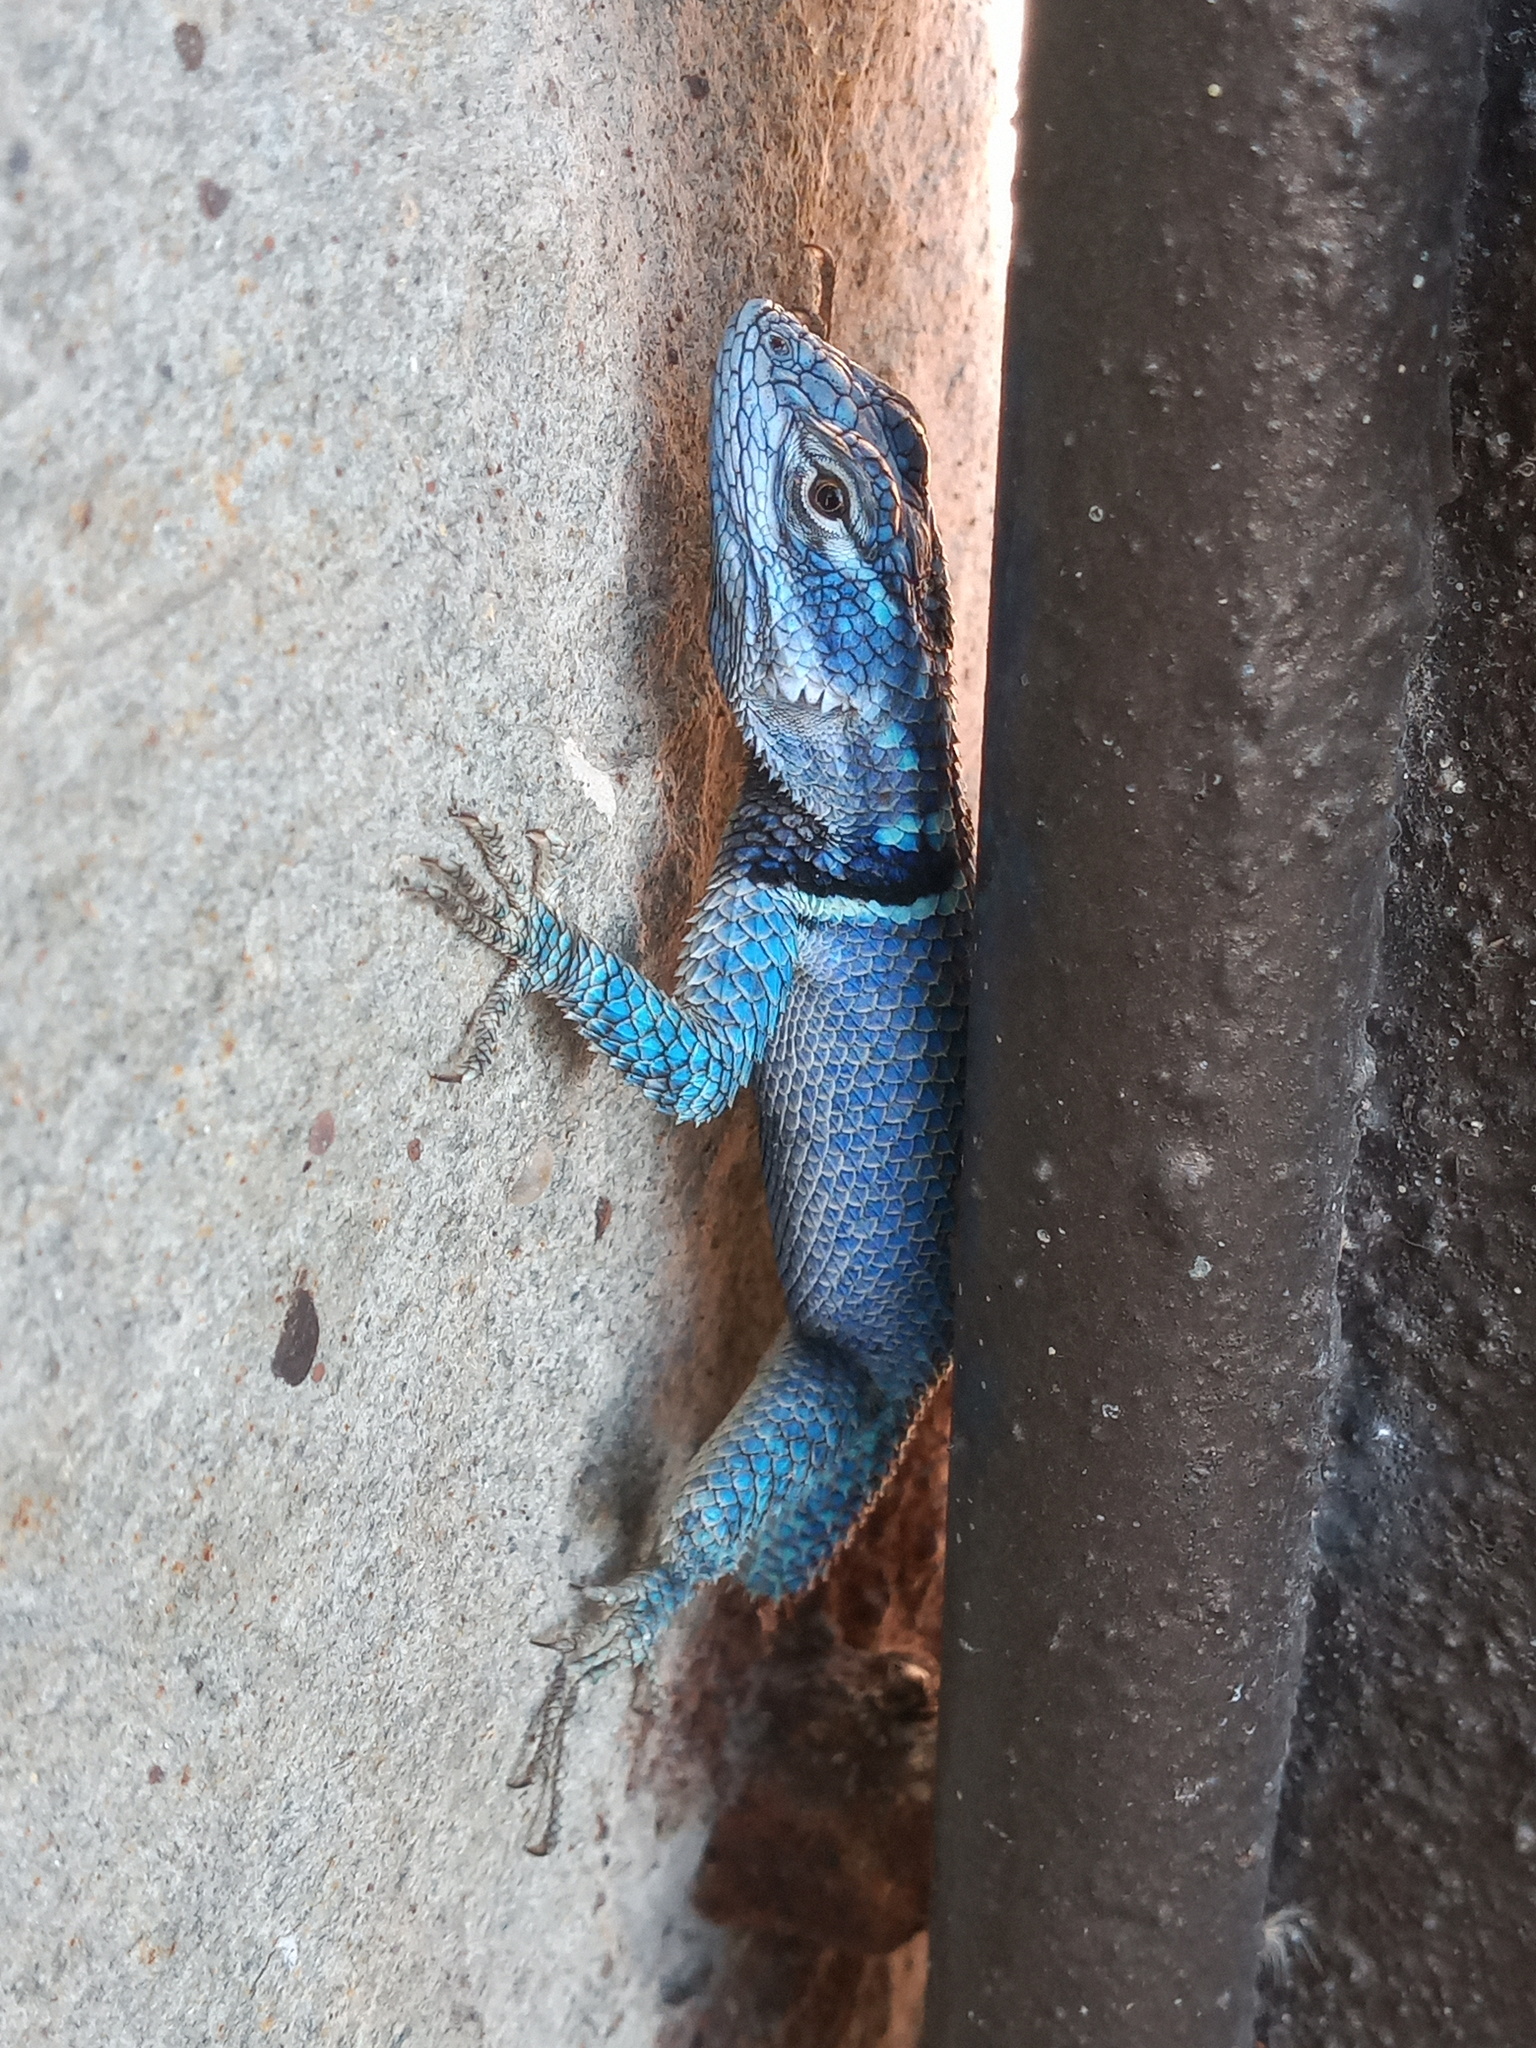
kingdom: Animalia
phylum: Chordata
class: Squamata
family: Phrynosomatidae
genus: Sceloporus
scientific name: Sceloporus minor
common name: Minor lizard
